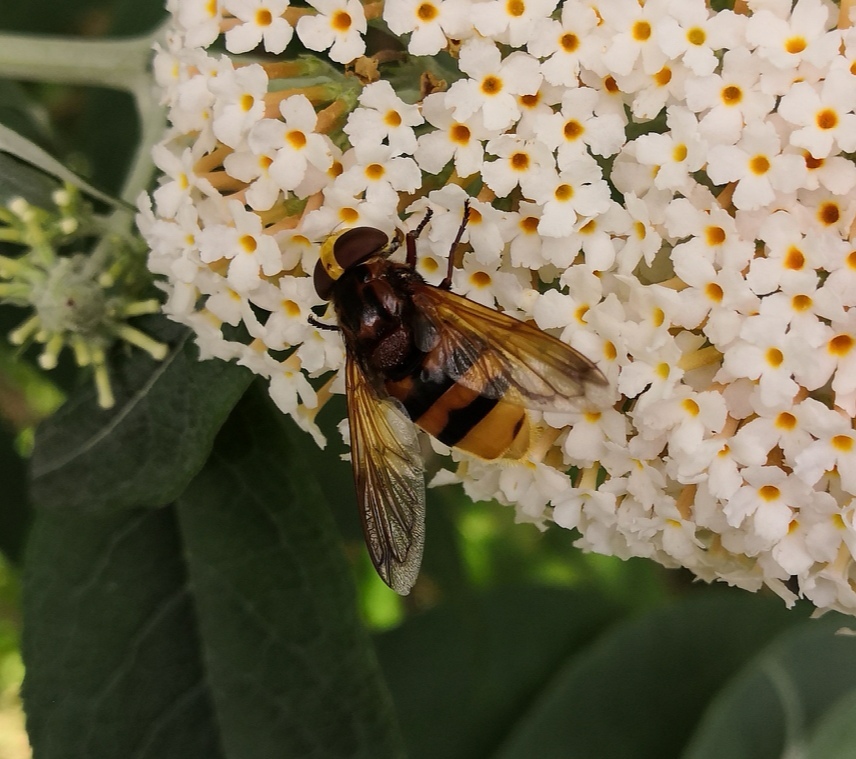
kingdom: Animalia
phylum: Arthropoda
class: Insecta
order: Diptera
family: Syrphidae
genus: Volucella
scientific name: Volucella zonaria
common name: Hornet hoverfly
